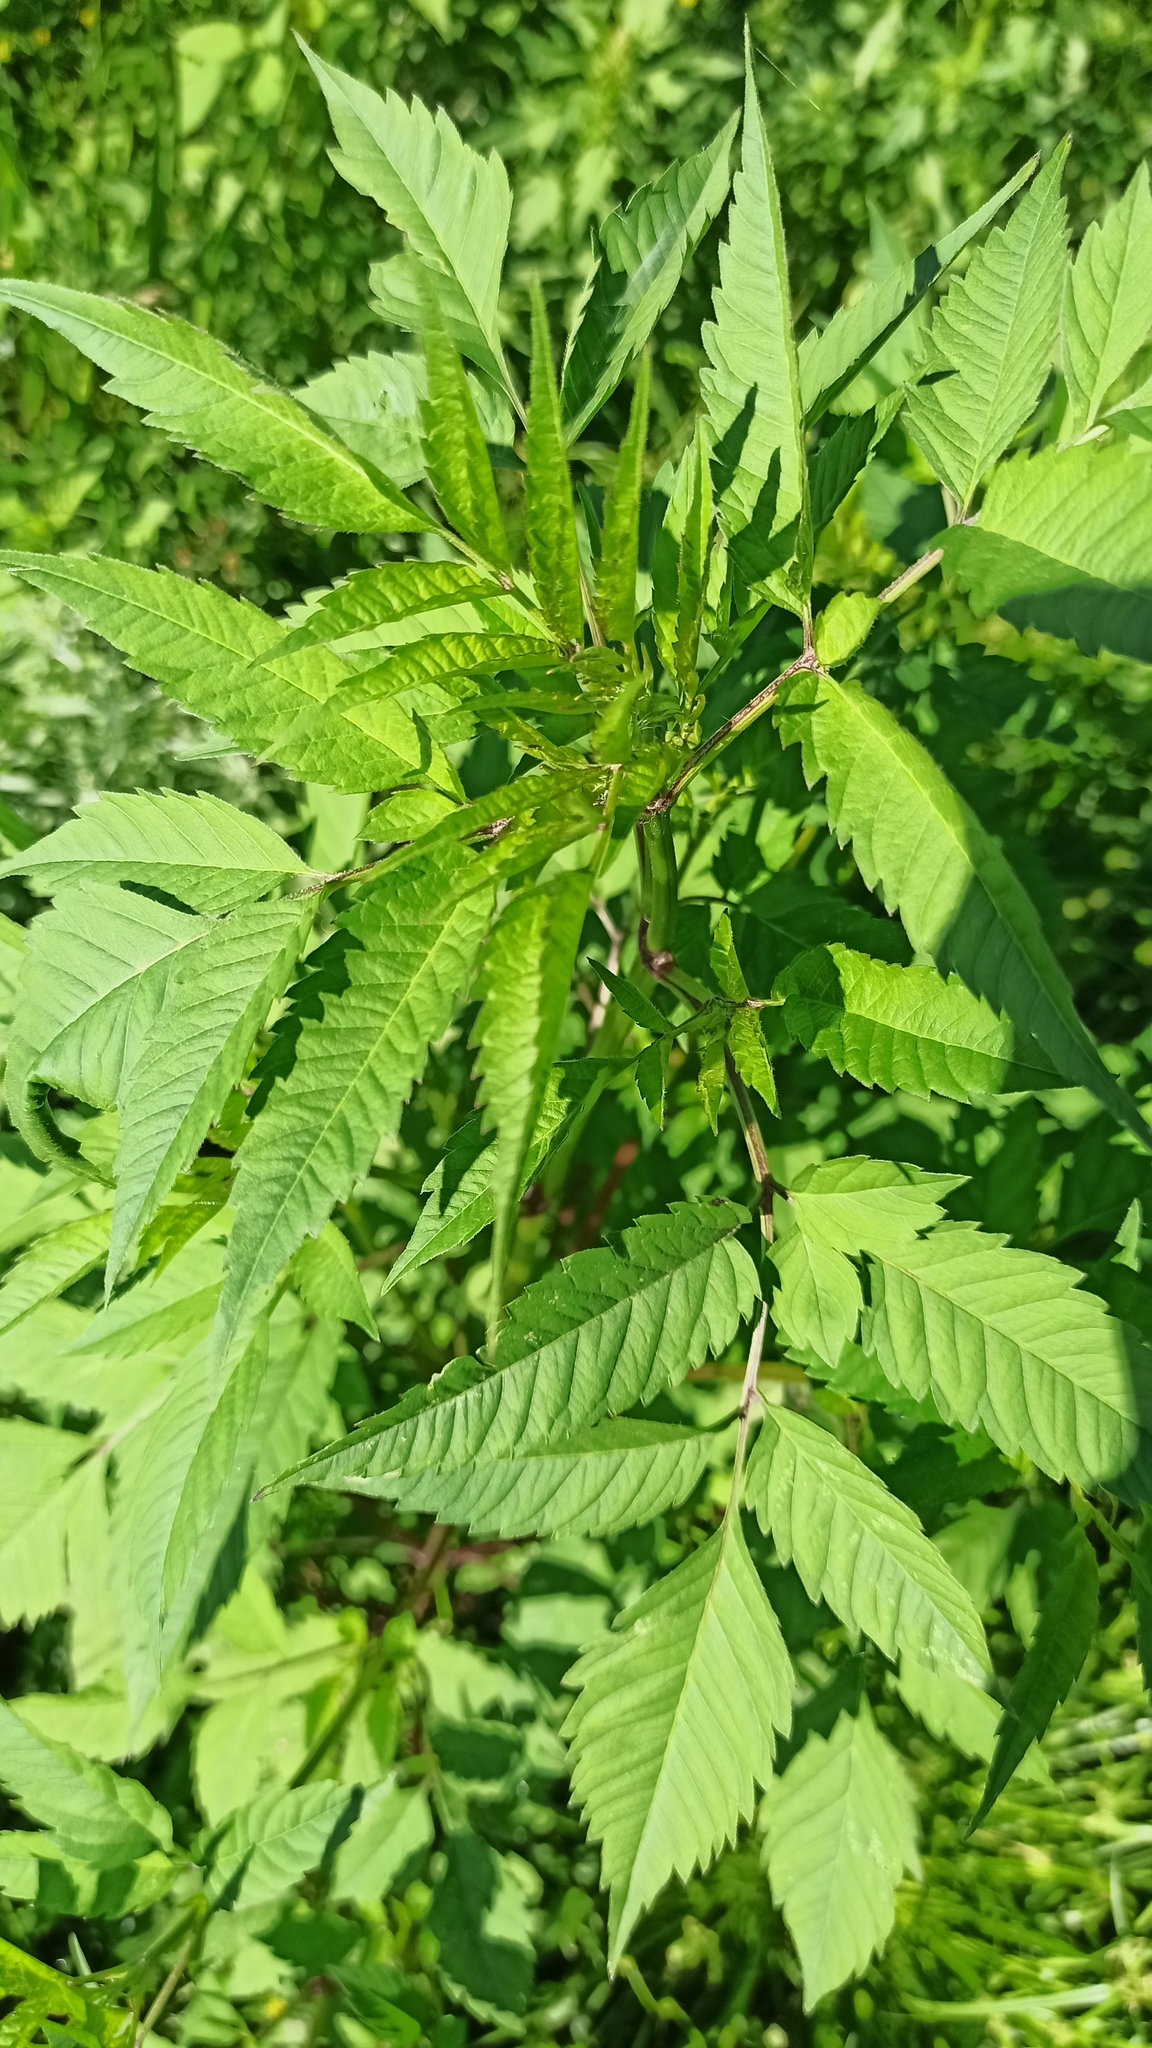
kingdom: Plantae
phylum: Tracheophyta
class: Magnoliopsida
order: Asterales
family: Asteraceae
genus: Bidens
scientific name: Bidens frondosa
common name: Beggarticks
